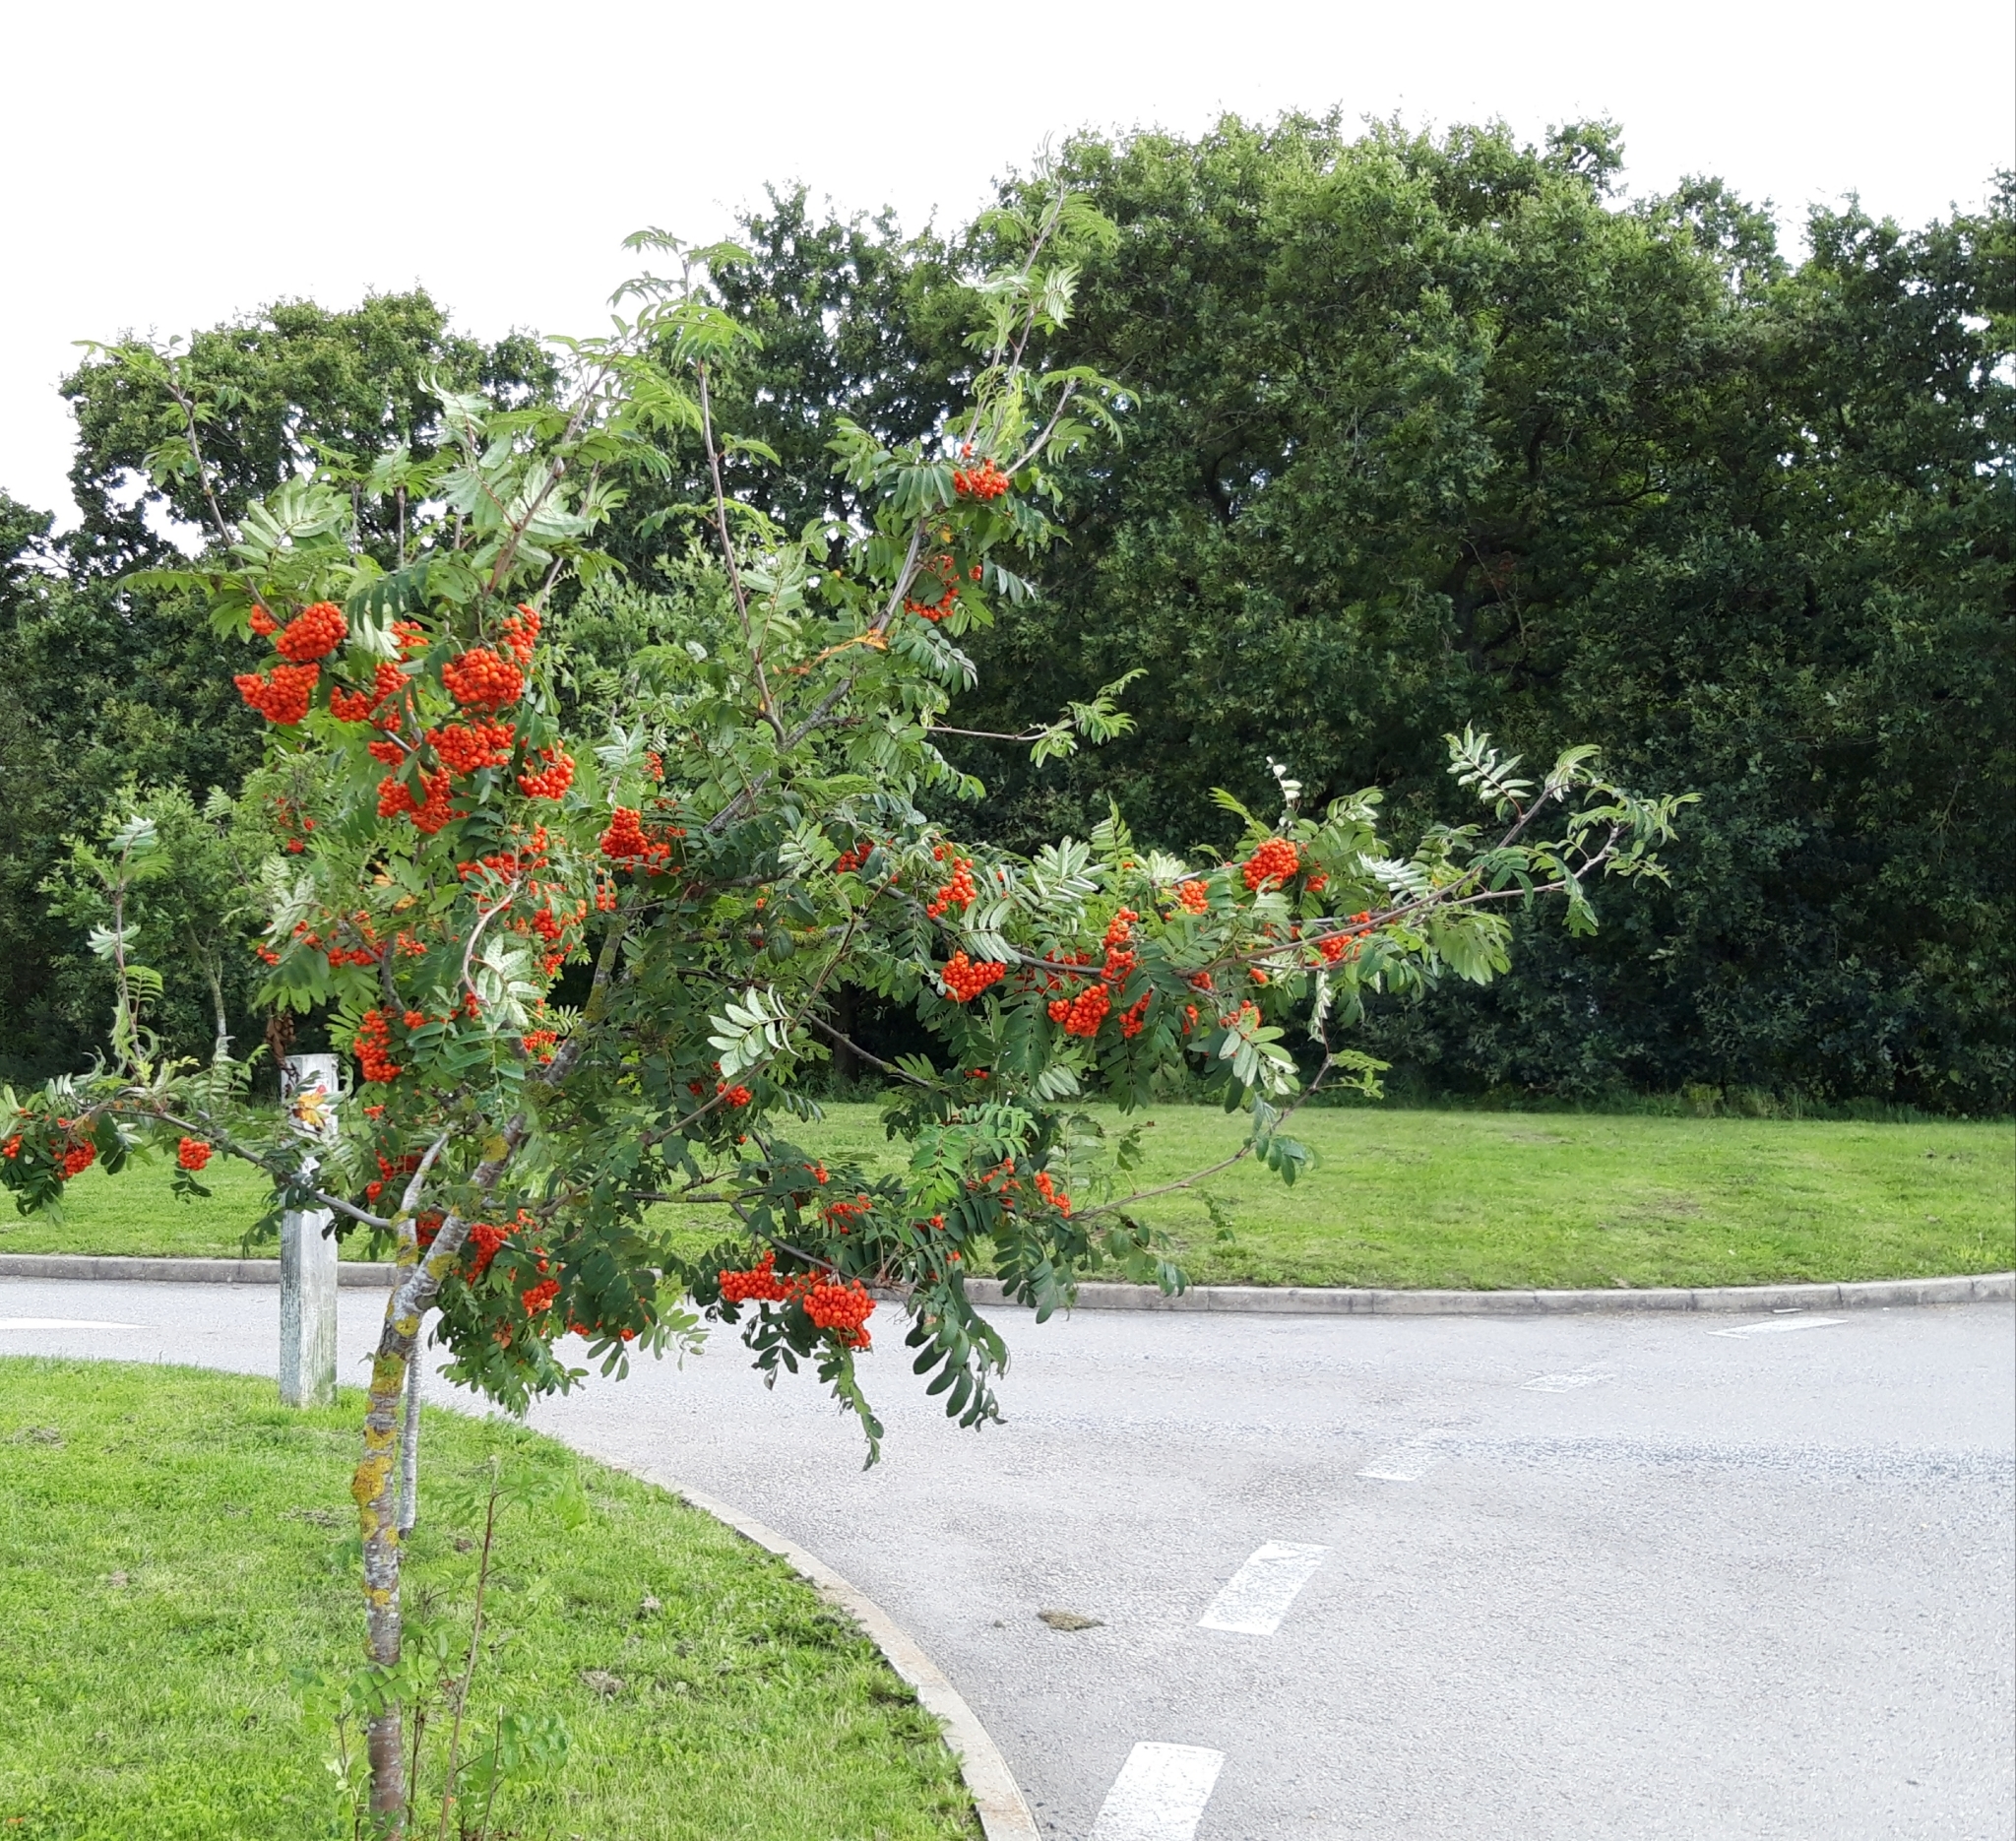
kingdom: Plantae
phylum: Tracheophyta
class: Magnoliopsida
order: Rosales
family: Rosaceae
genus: Sorbus
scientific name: Sorbus aucuparia
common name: Rowan
